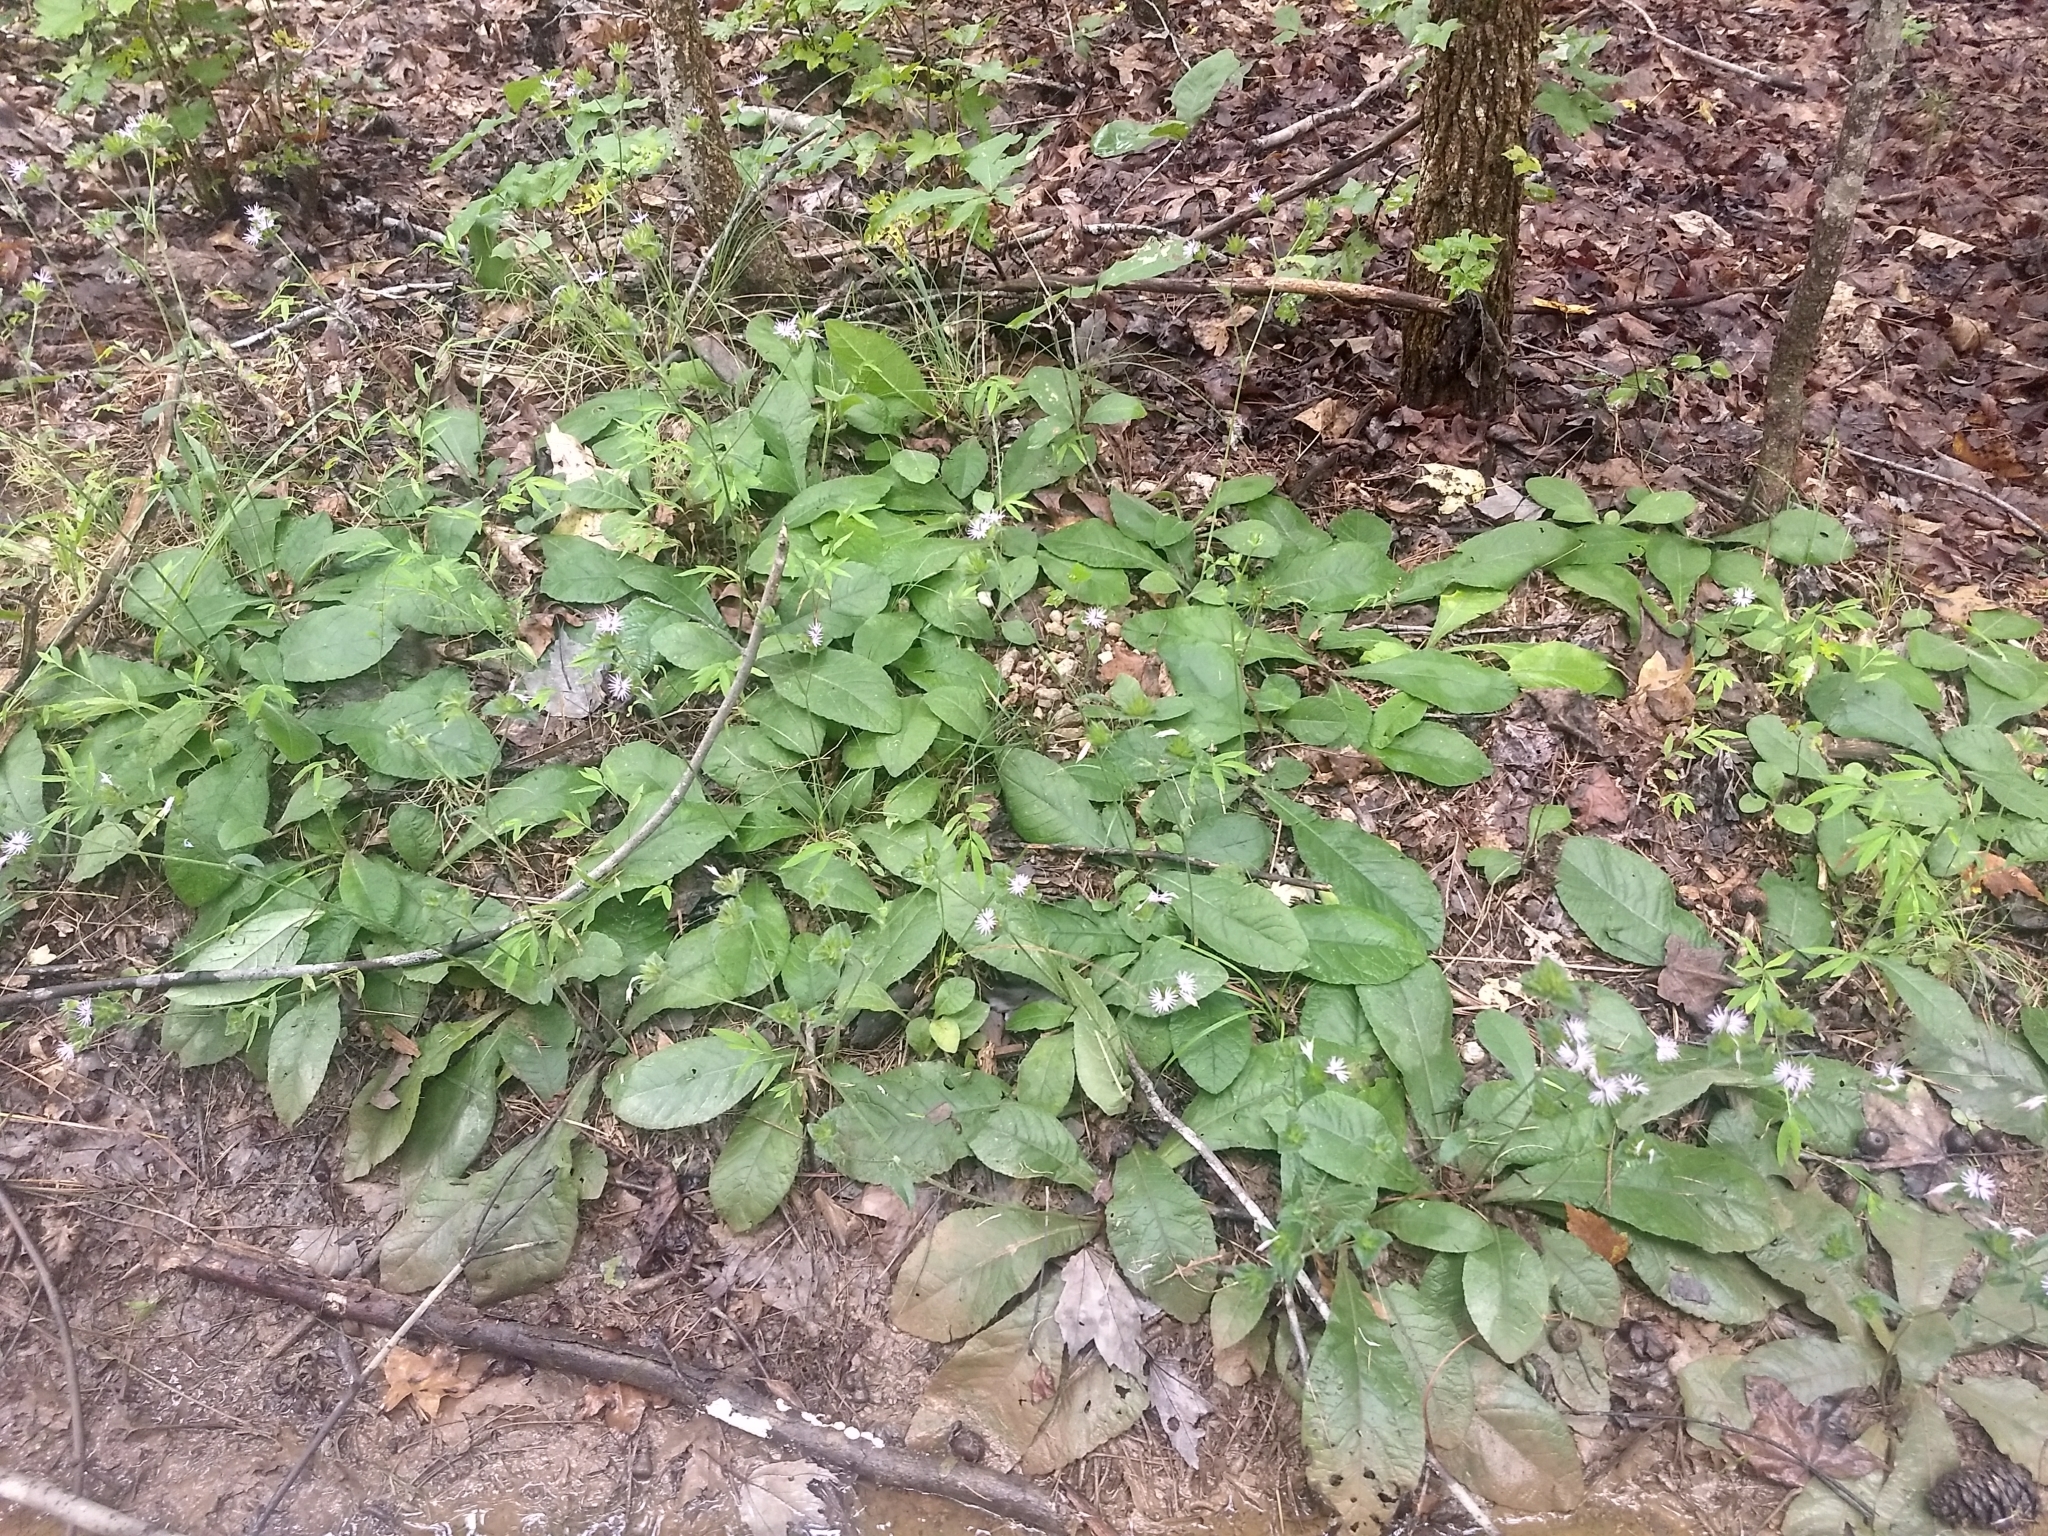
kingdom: Plantae
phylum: Tracheophyta
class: Magnoliopsida
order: Asterales
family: Asteraceae
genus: Elephantopus
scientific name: Elephantopus tomentosus
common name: Tobacco-weed
